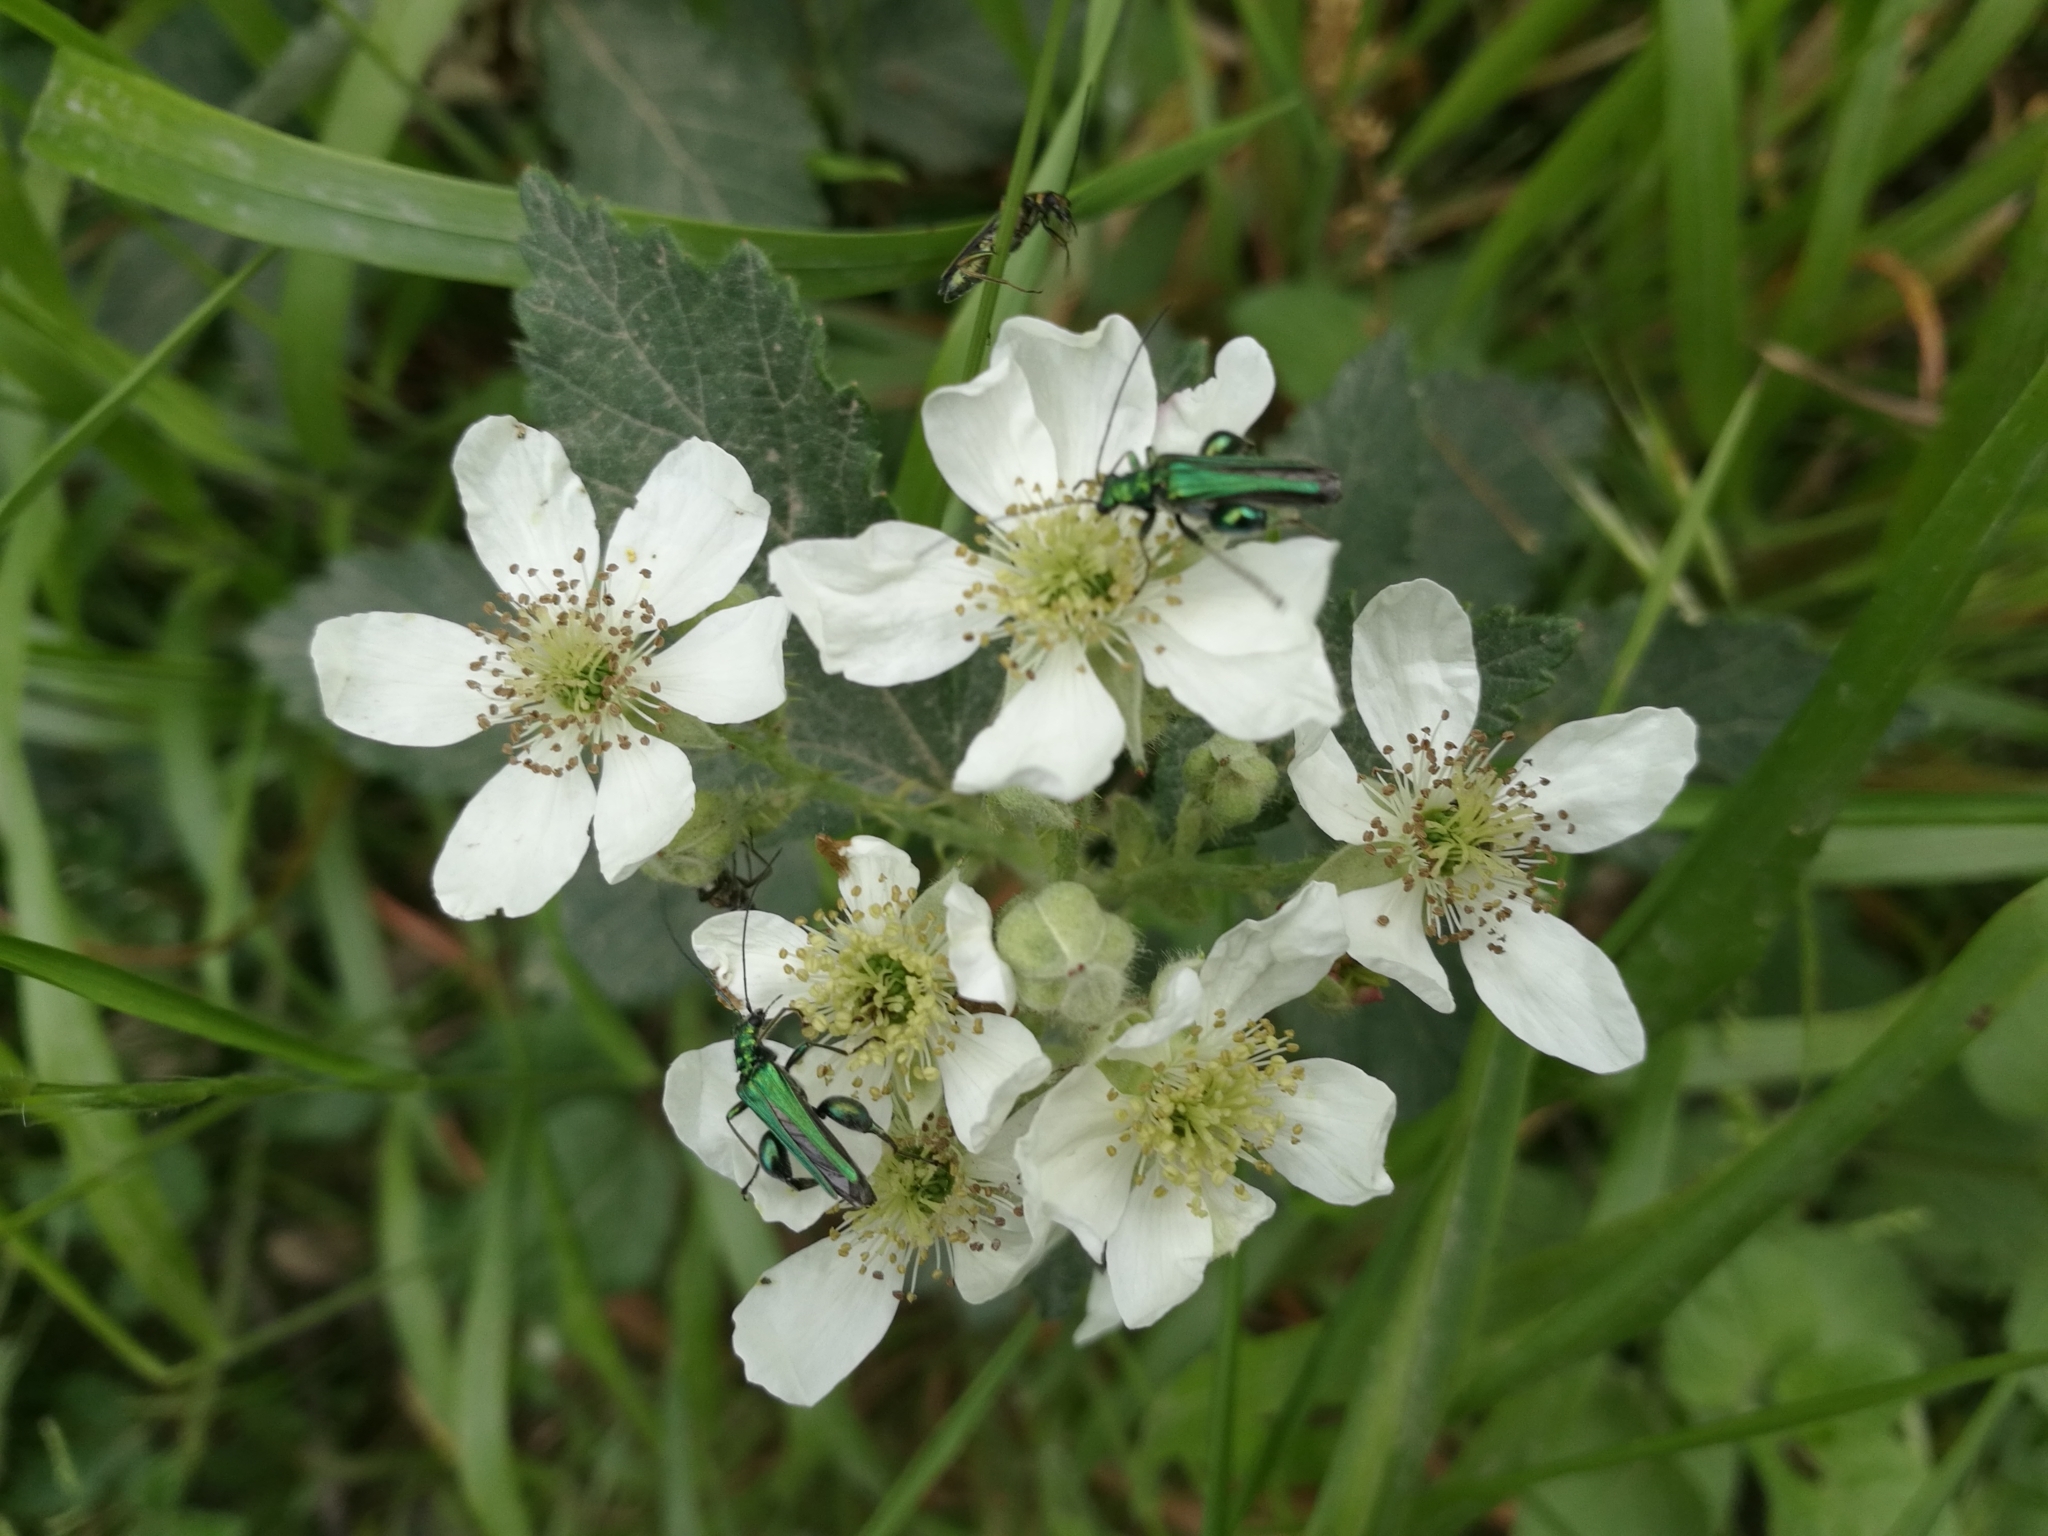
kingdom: Animalia
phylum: Arthropoda
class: Insecta
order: Coleoptera
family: Oedemeridae
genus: Oedemera
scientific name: Oedemera nobilis
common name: Swollen-thighed beetle
